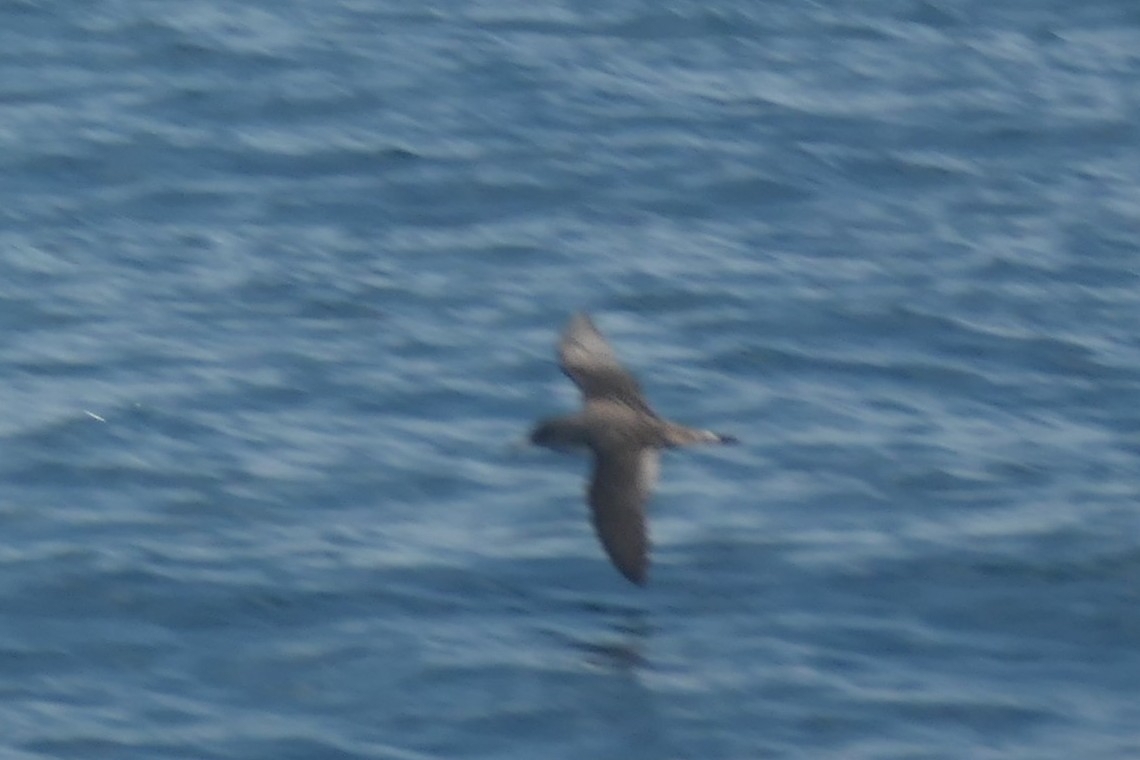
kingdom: Animalia
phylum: Chordata
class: Aves
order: Procellariiformes
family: Procellariidae
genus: Calonectris
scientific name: Calonectris diomedea
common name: Cory's shearwater
